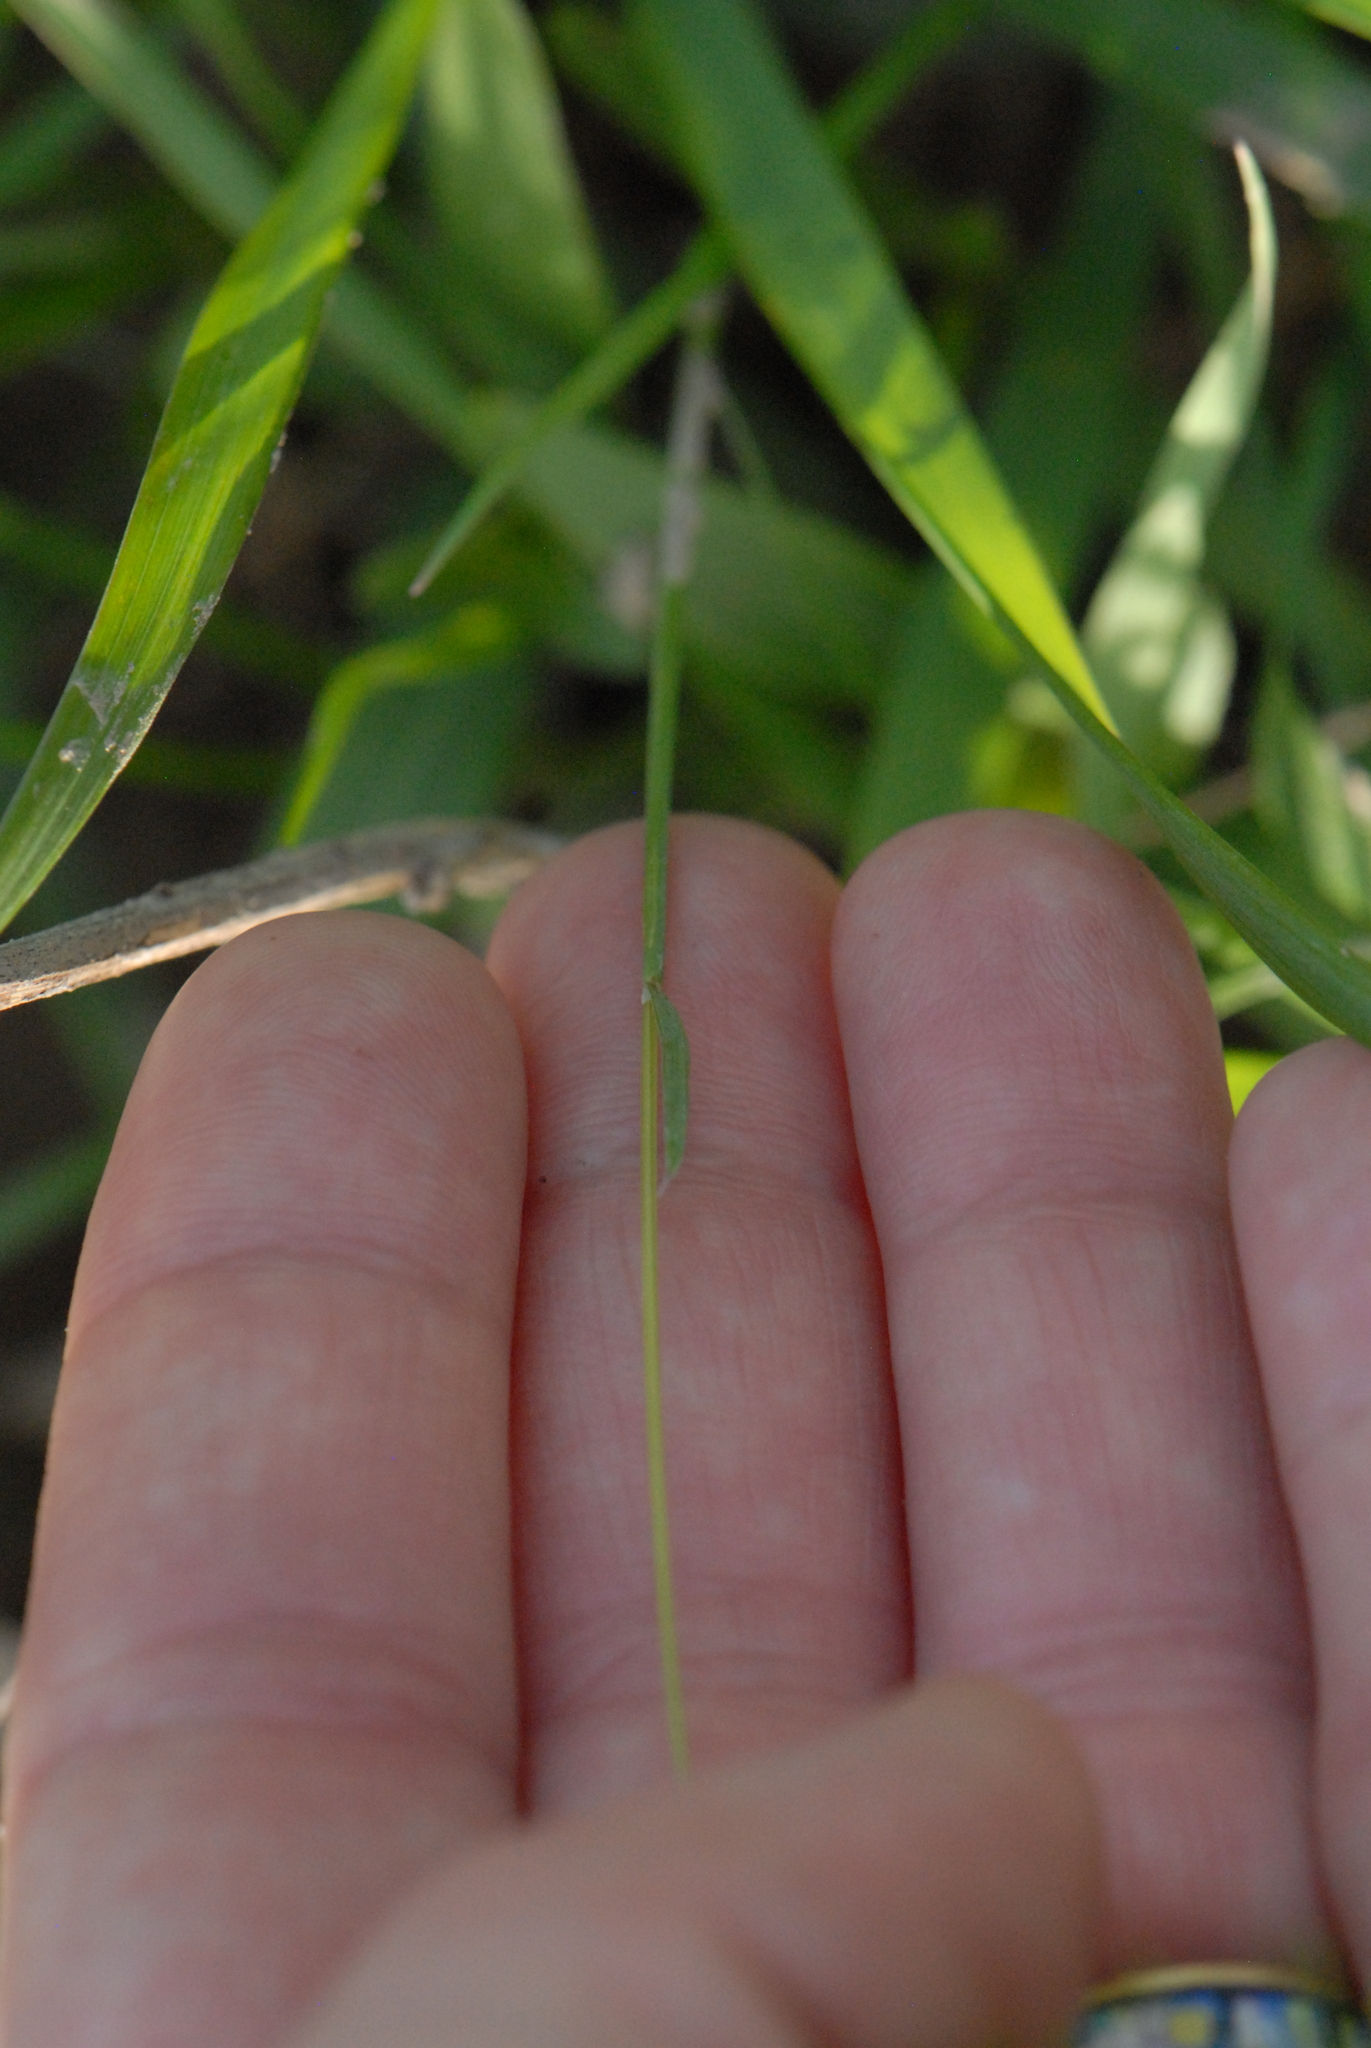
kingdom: Plantae
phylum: Tracheophyta
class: Liliopsida
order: Poales
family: Poaceae
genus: Poa
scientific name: Poa bulbosa
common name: Bulbous bluegrass
